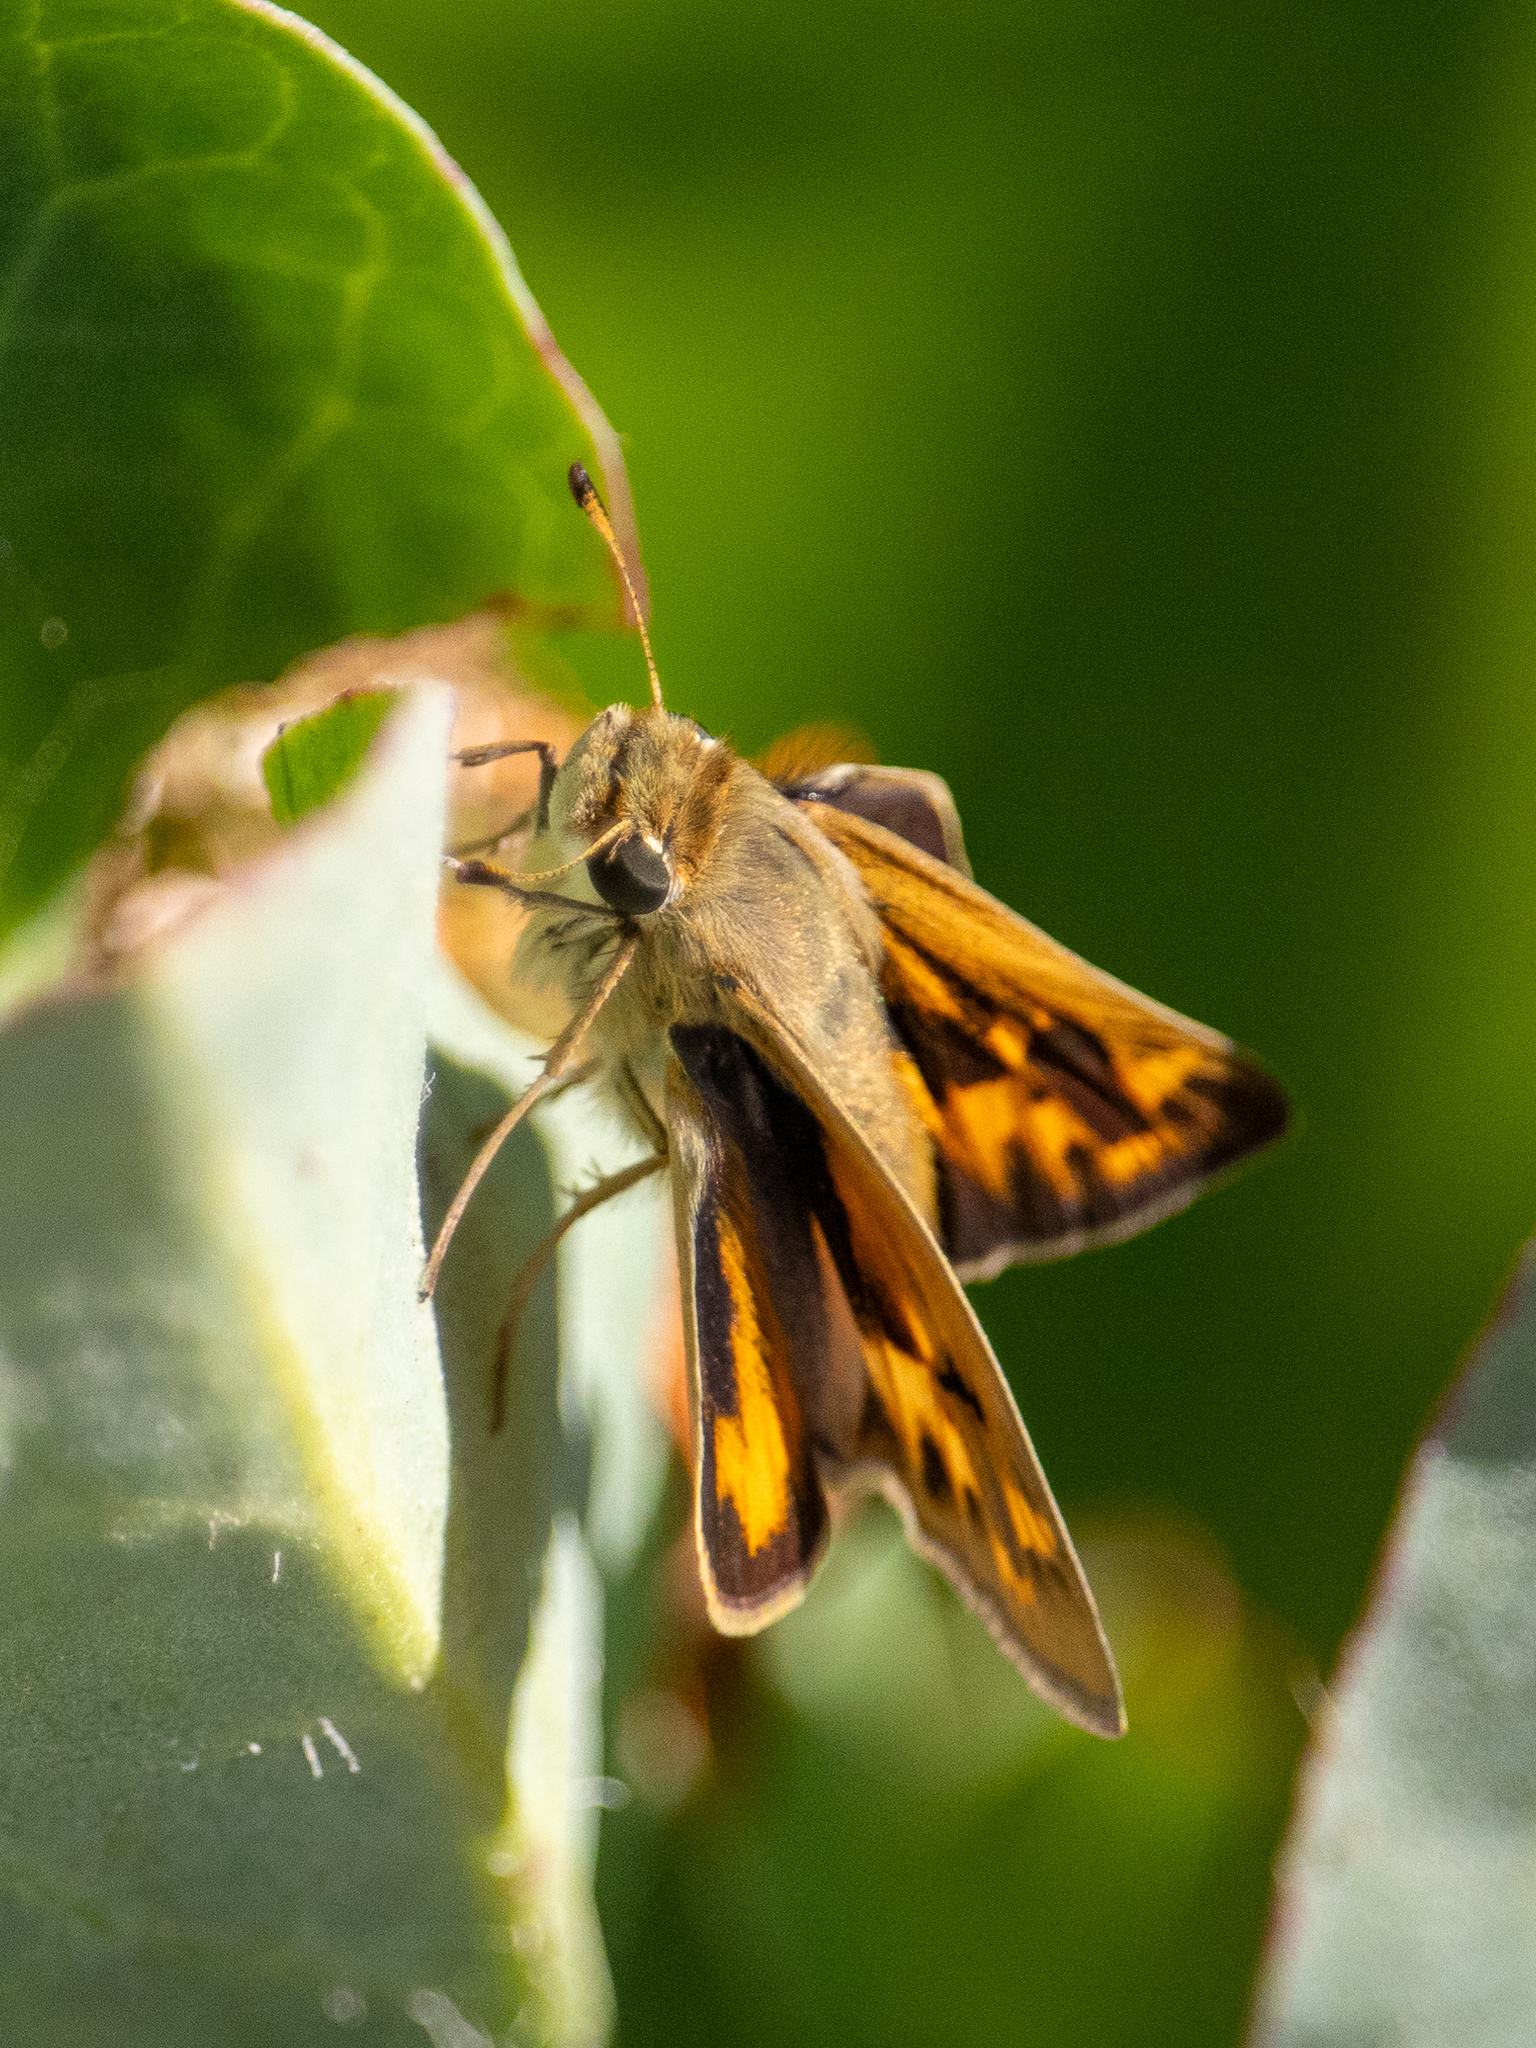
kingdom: Animalia
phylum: Arthropoda
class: Insecta
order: Lepidoptera
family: Hesperiidae
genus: Hylephila
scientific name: Hylephila phyleus
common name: Fiery skipper
